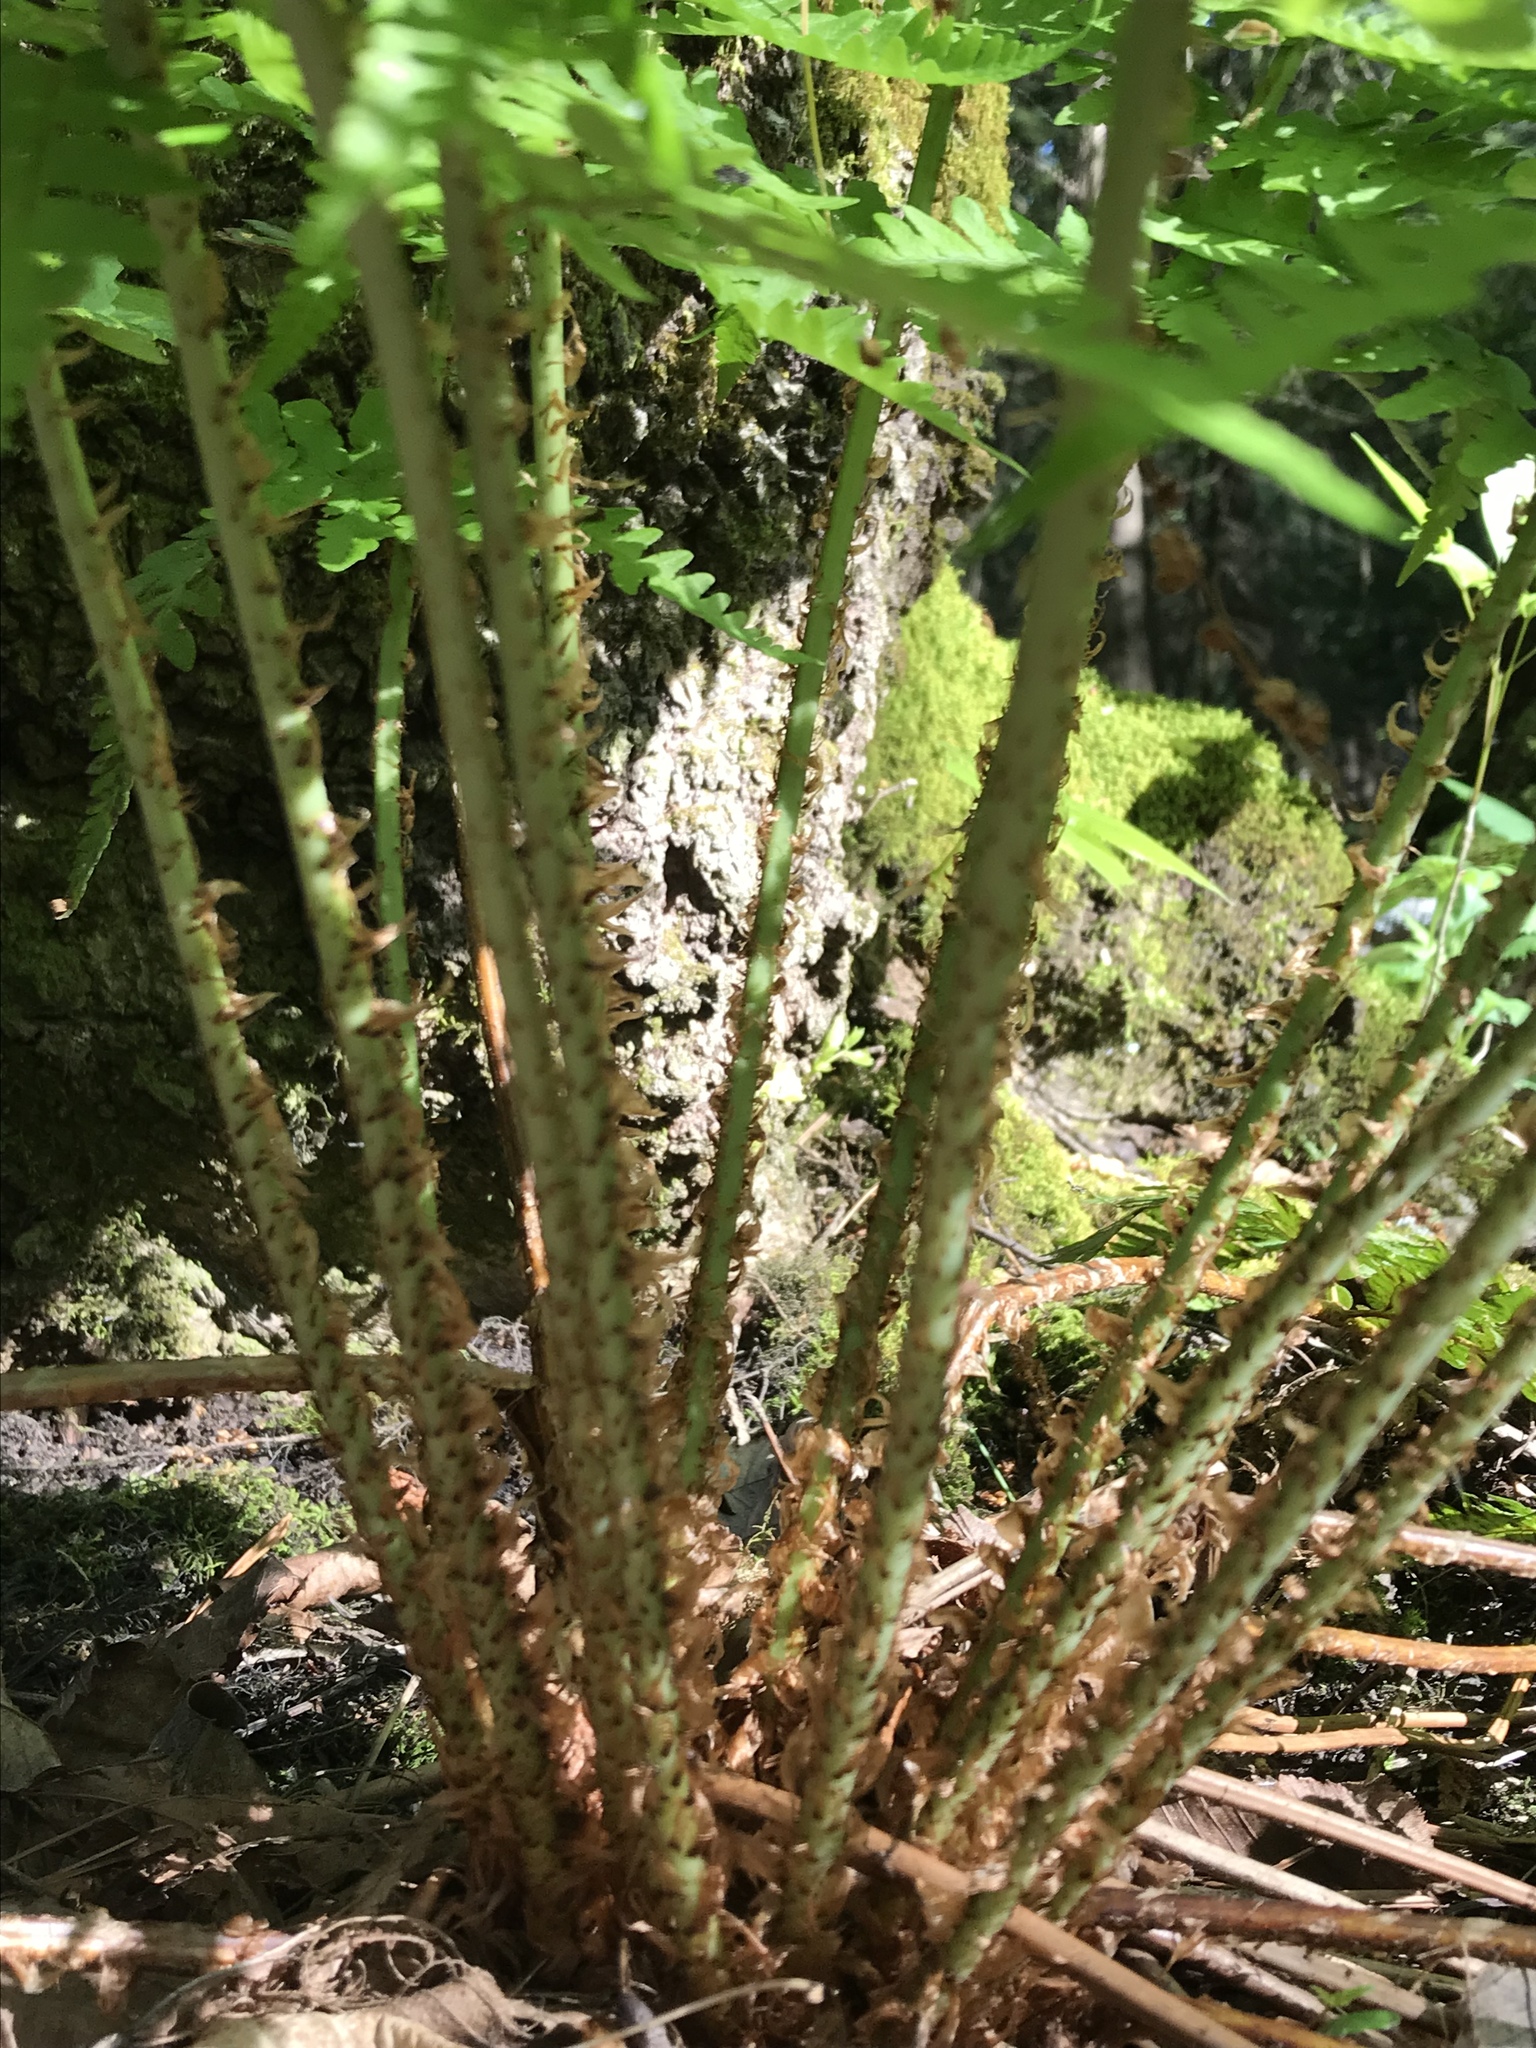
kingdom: Plantae
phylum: Tracheophyta
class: Polypodiopsida
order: Polypodiales
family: Dryopteridaceae
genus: Dryopteris
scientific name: Dryopteris filix-mas
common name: Male fern
